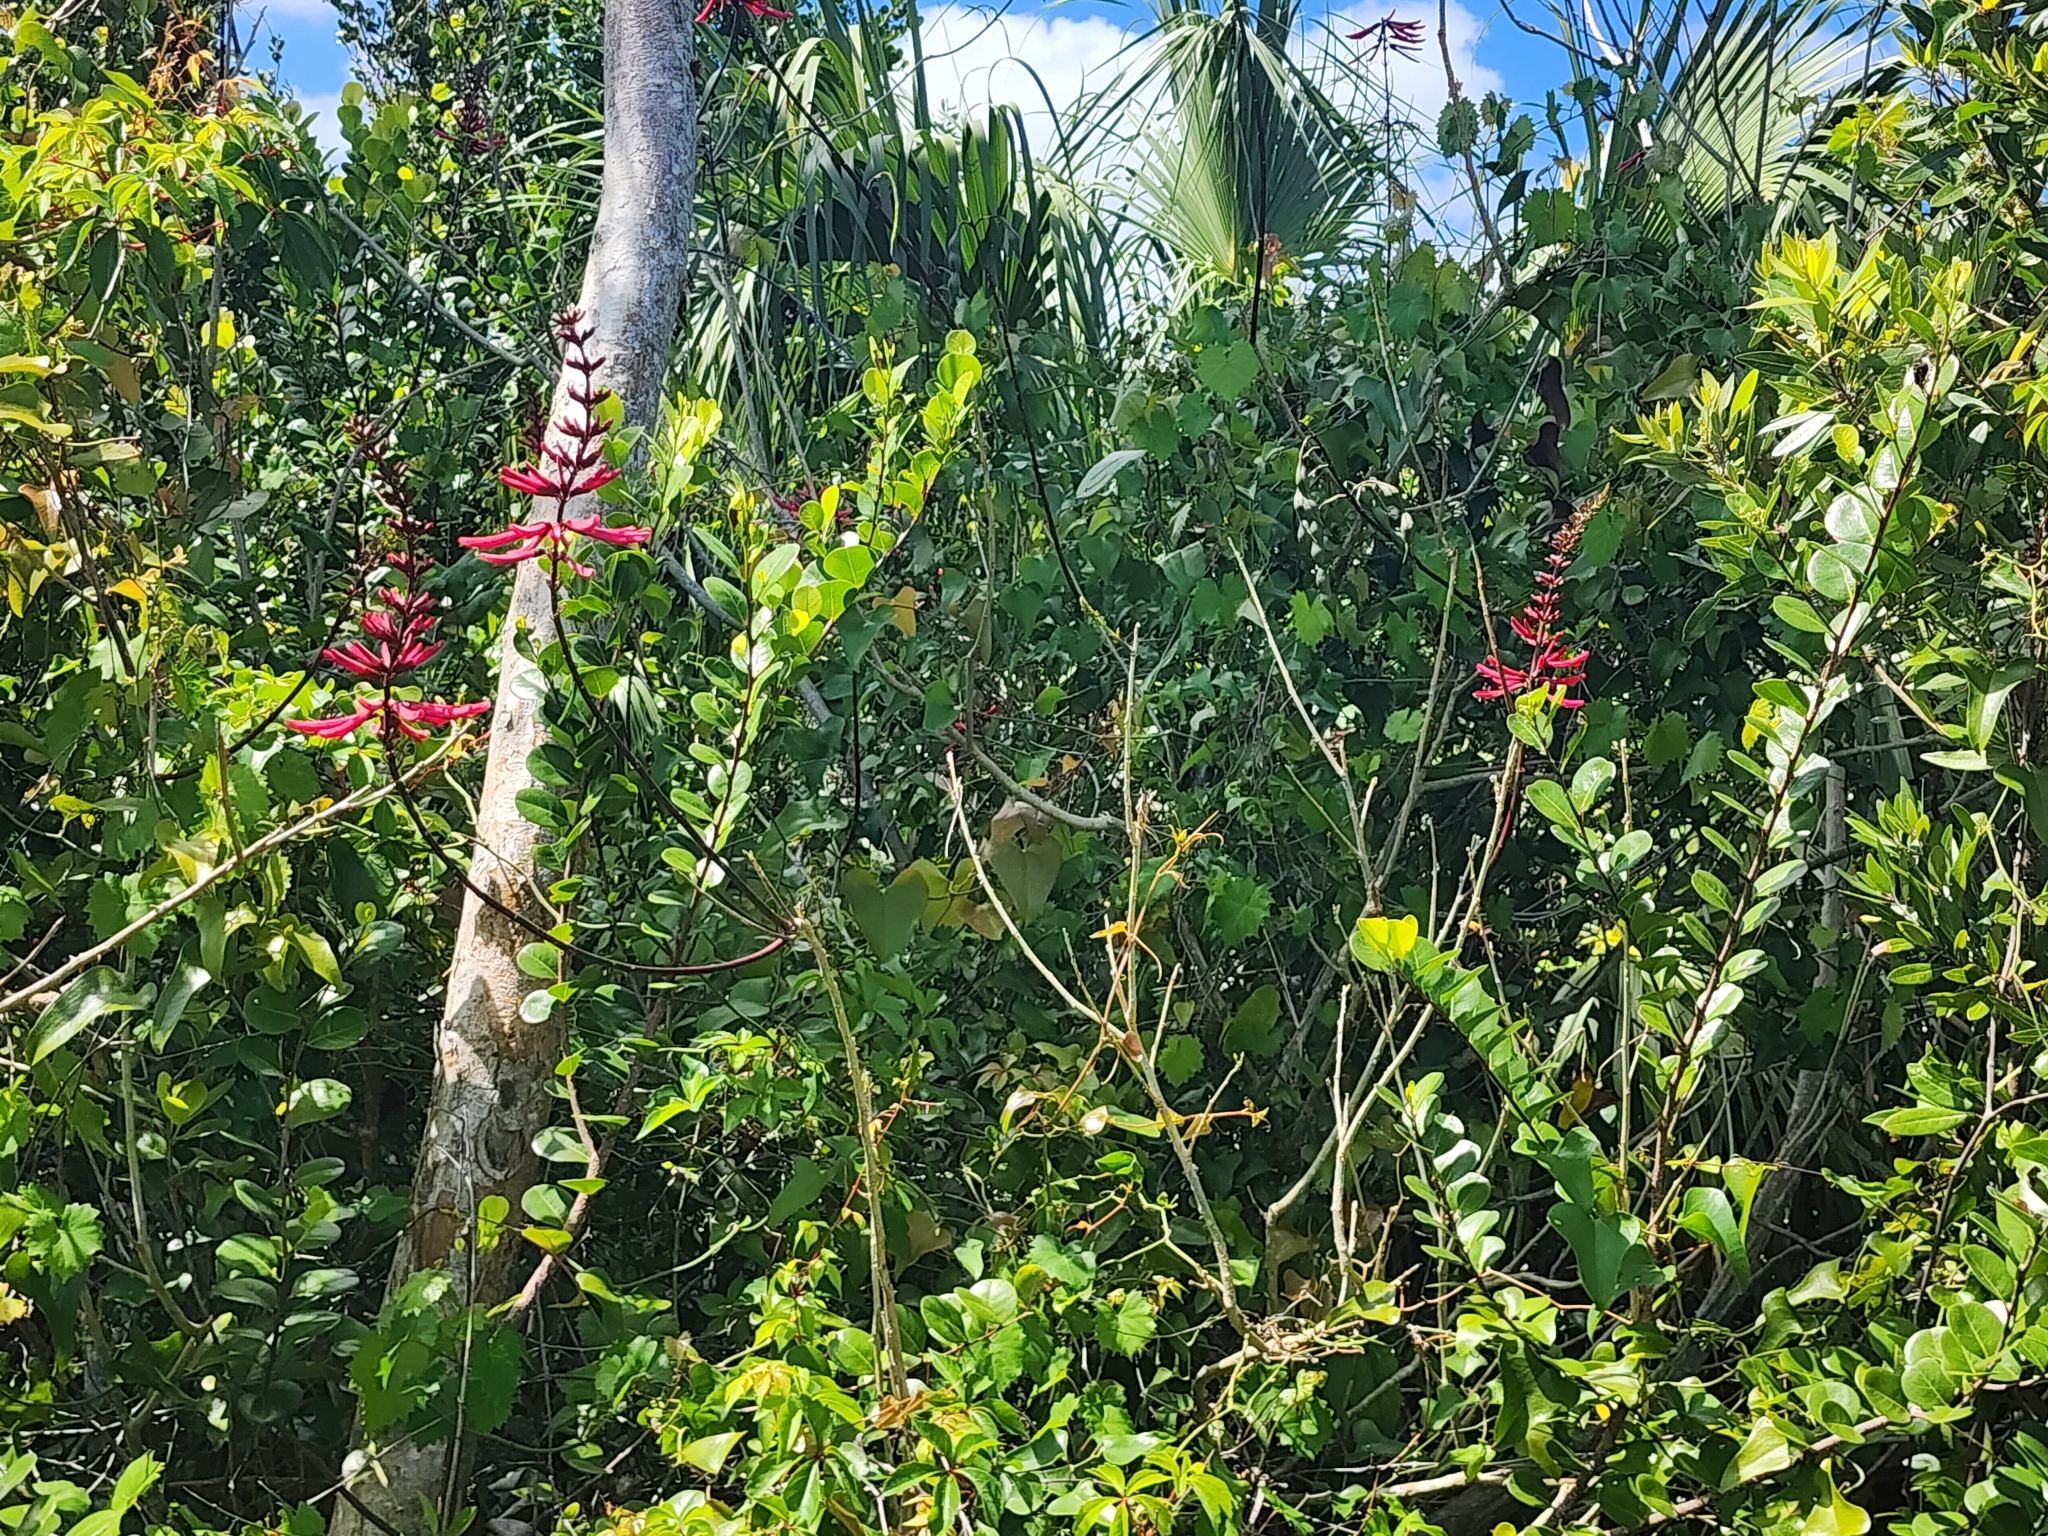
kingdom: Plantae
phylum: Tracheophyta
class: Magnoliopsida
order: Fabales
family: Fabaceae
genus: Erythrina
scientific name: Erythrina herbacea
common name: Coral-bean
